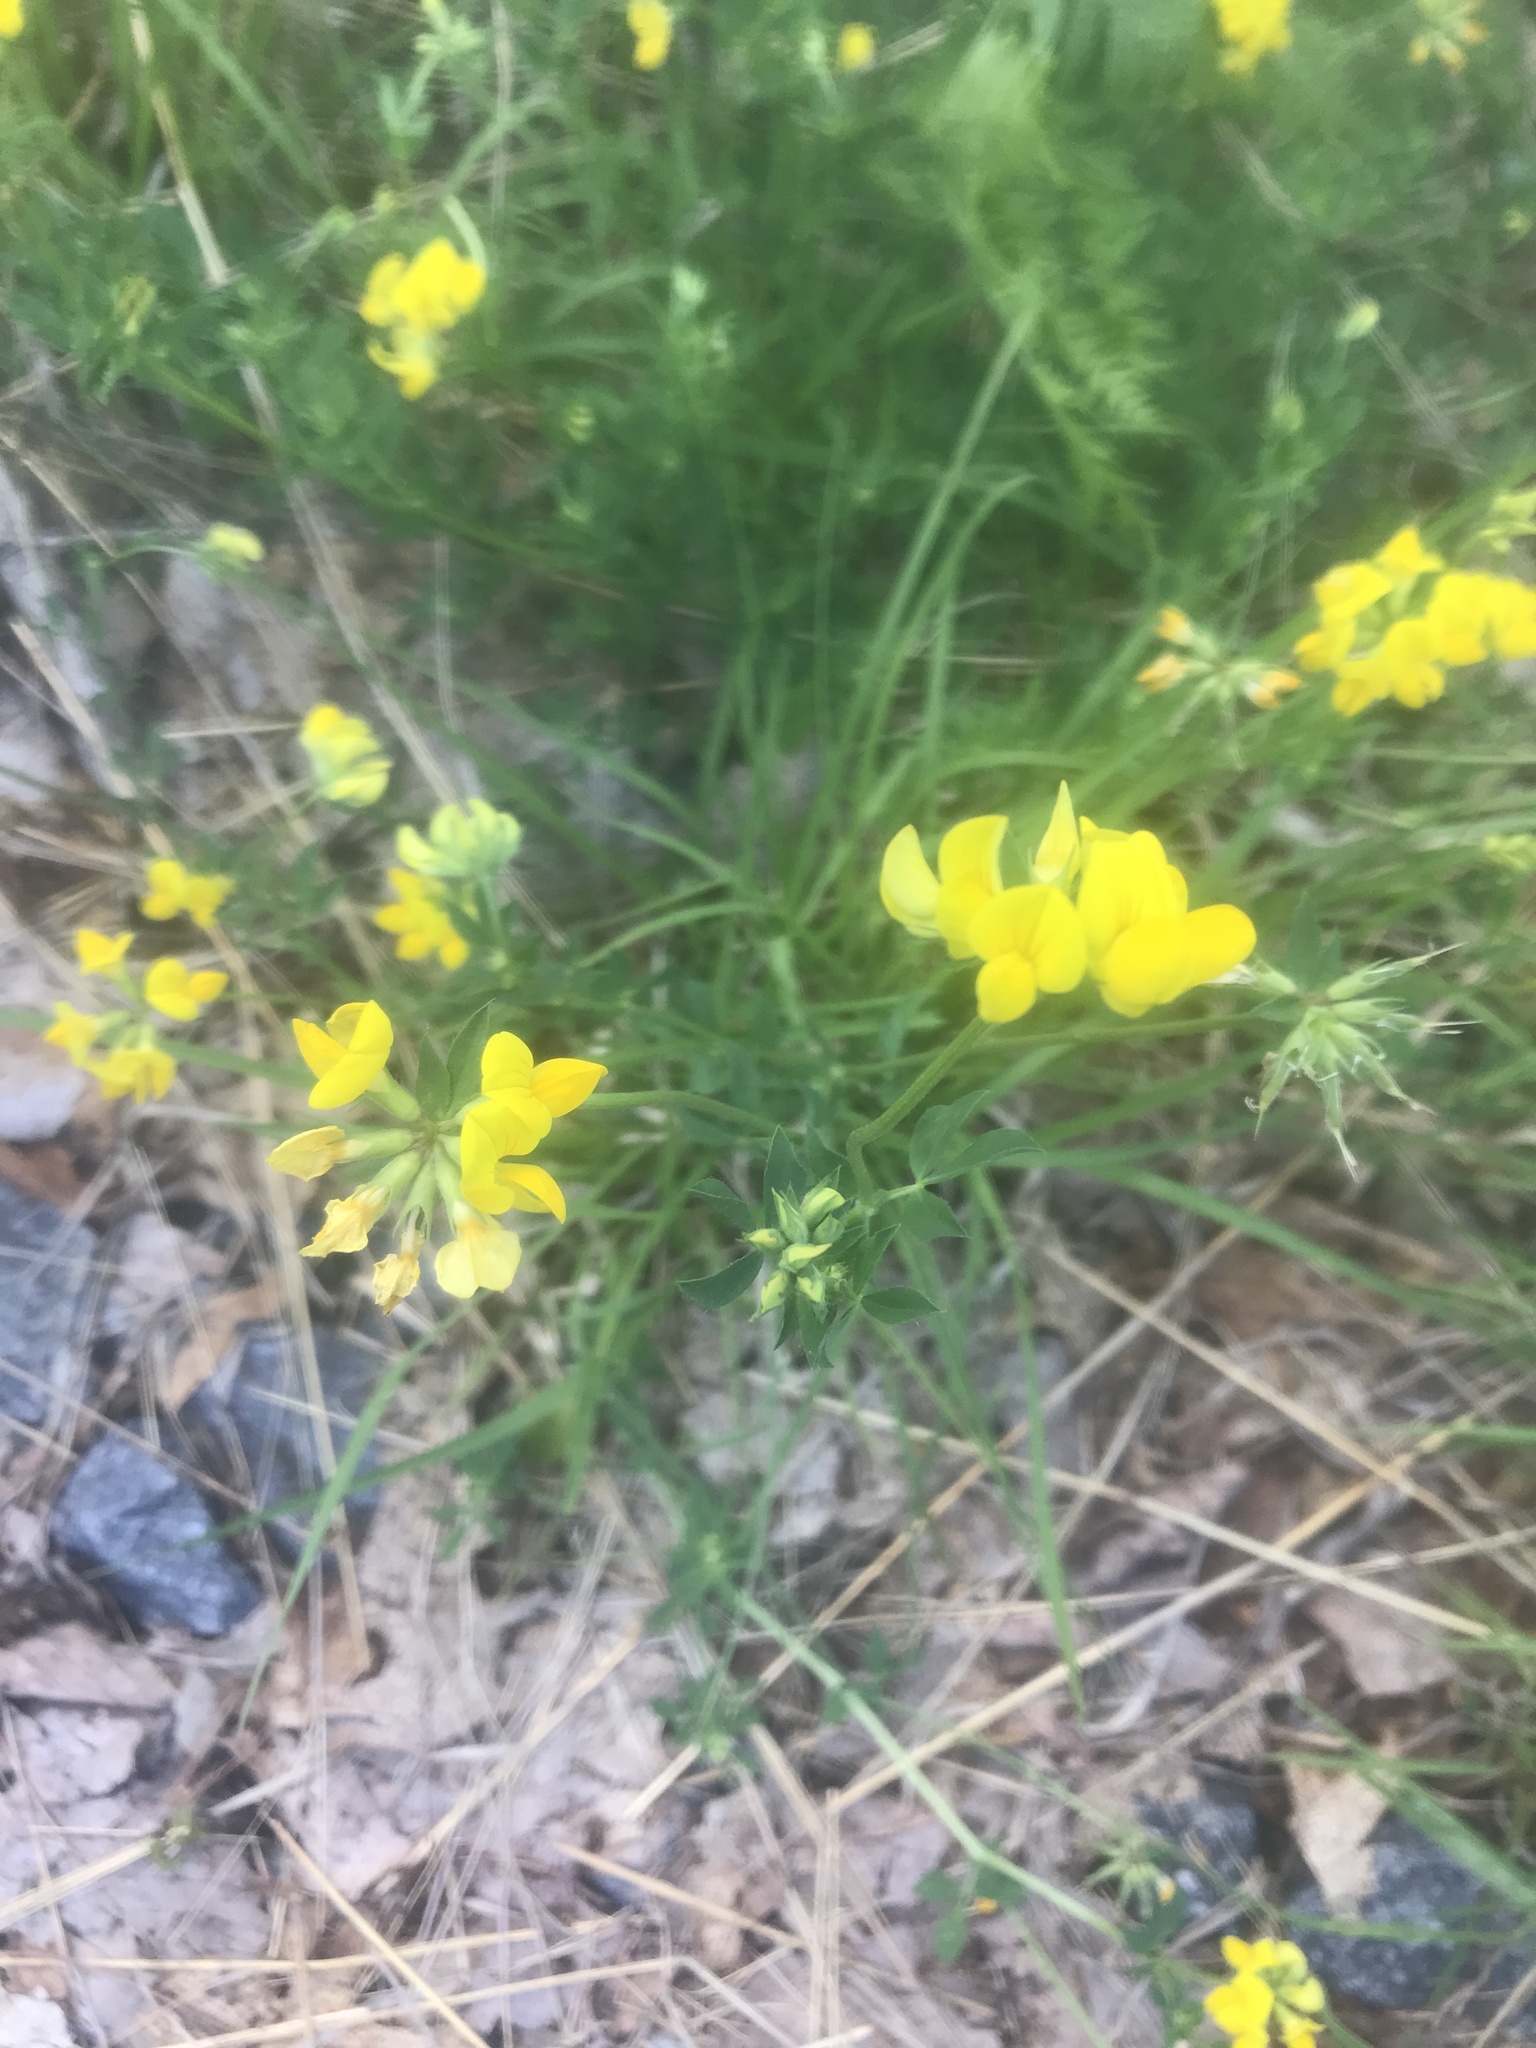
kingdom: Plantae
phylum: Tracheophyta
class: Magnoliopsida
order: Fabales
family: Fabaceae
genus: Lotus
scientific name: Lotus corniculatus
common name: Common bird's-foot-trefoil
